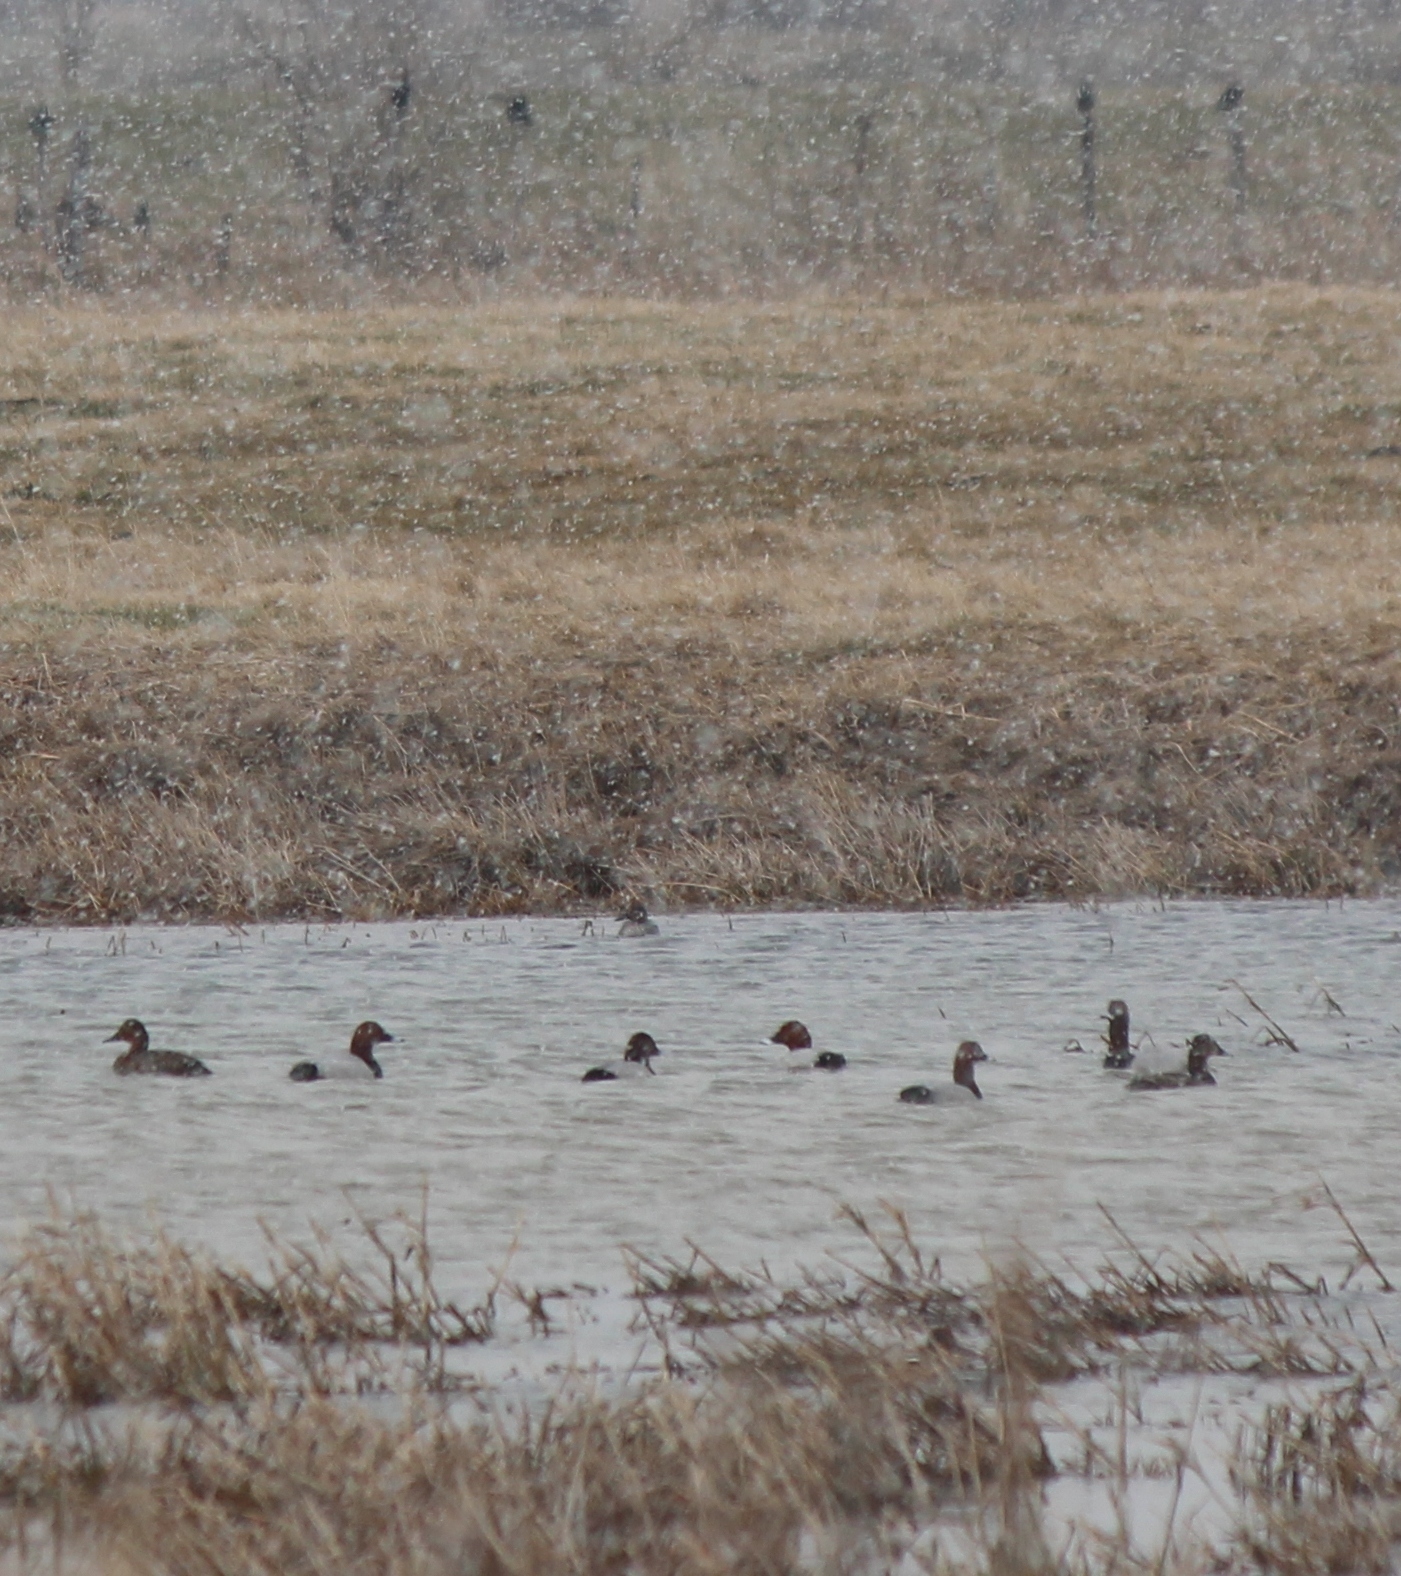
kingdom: Animalia
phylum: Chordata
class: Aves
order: Anseriformes
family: Anatidae
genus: Aythya
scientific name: Aythya ferina
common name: Common pochard
